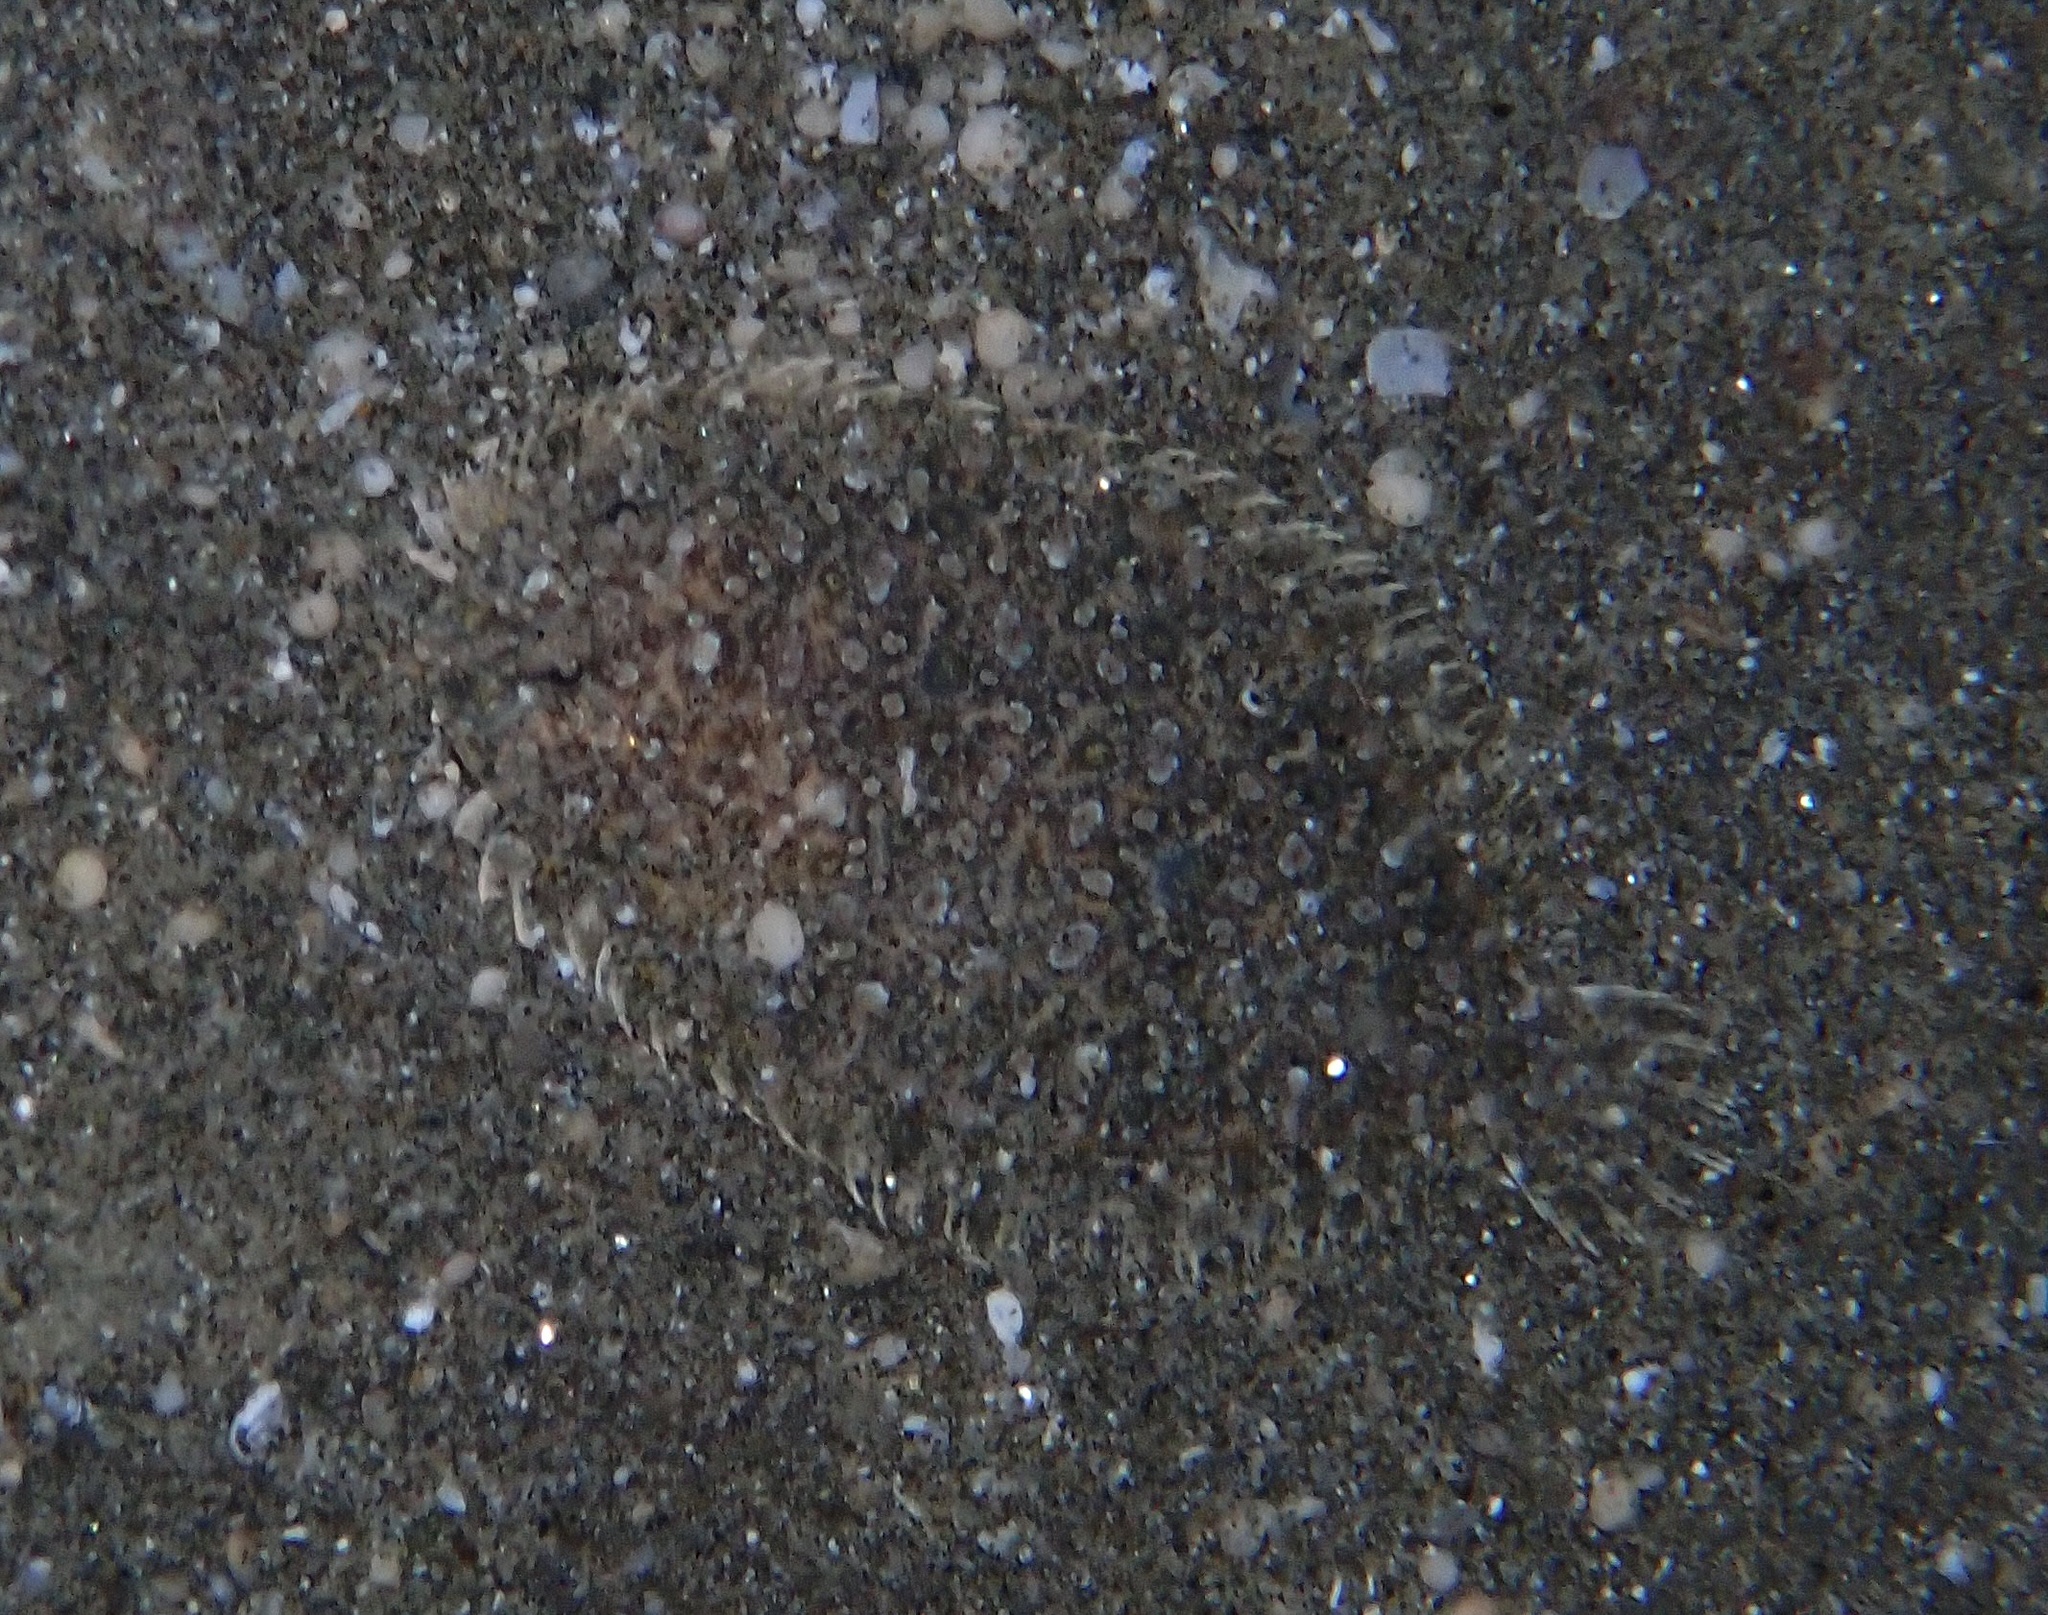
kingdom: Animalia
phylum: Chordata
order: Pleuronectiformes
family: Bothidae
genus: Bothus
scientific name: Bothus pantherinus
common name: Leopard flounder
